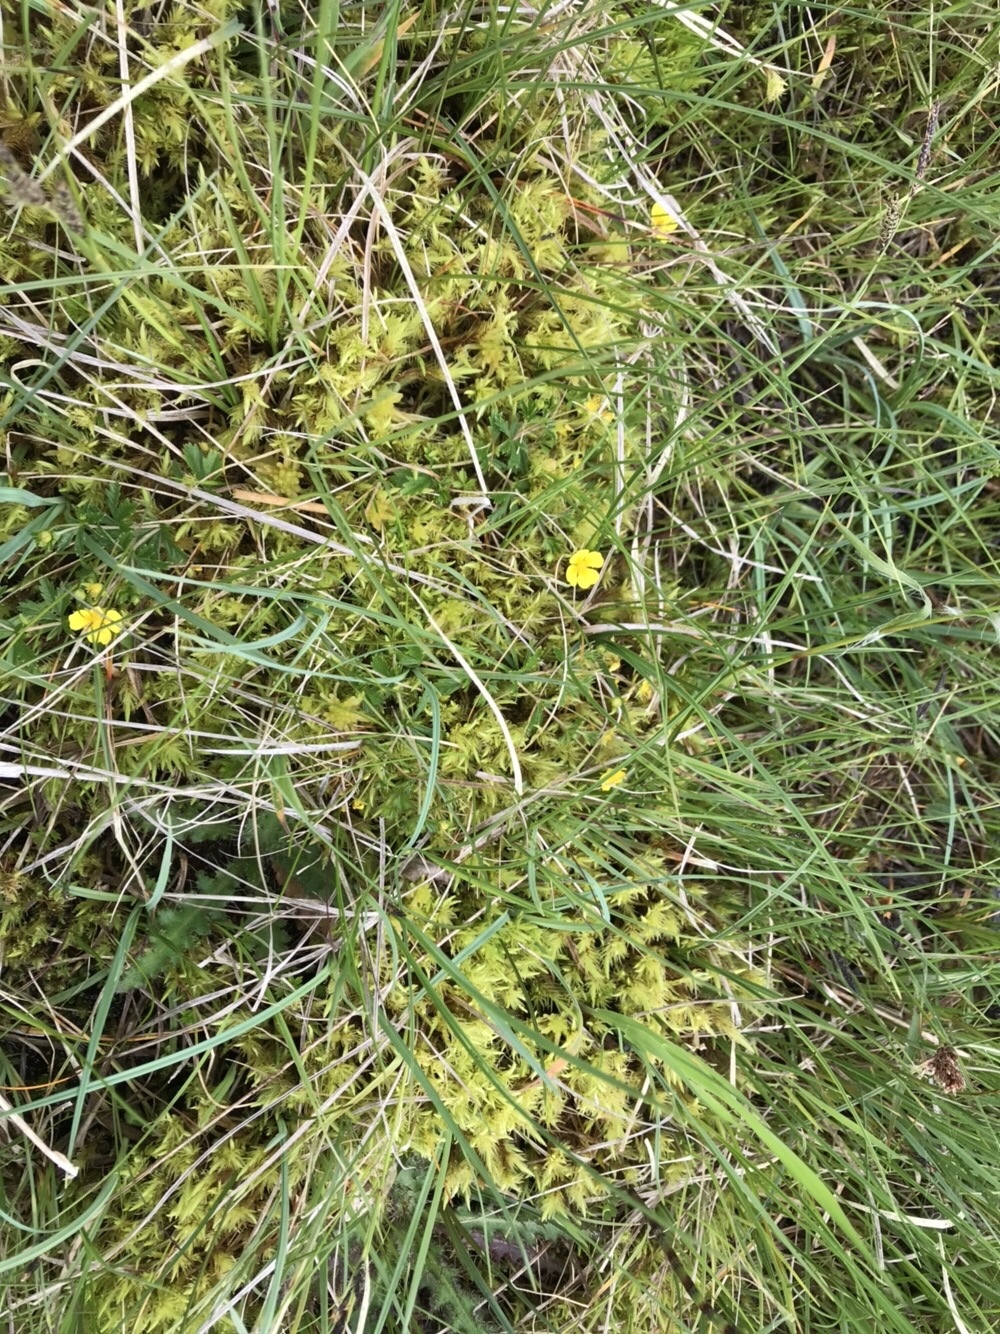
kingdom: Plantae
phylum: Bryophyta
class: Bryopsida
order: Aulacomniales
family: Aulacomniaceae
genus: Aulacomnium
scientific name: Aulacomnium palustre
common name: Bog groove-moss
